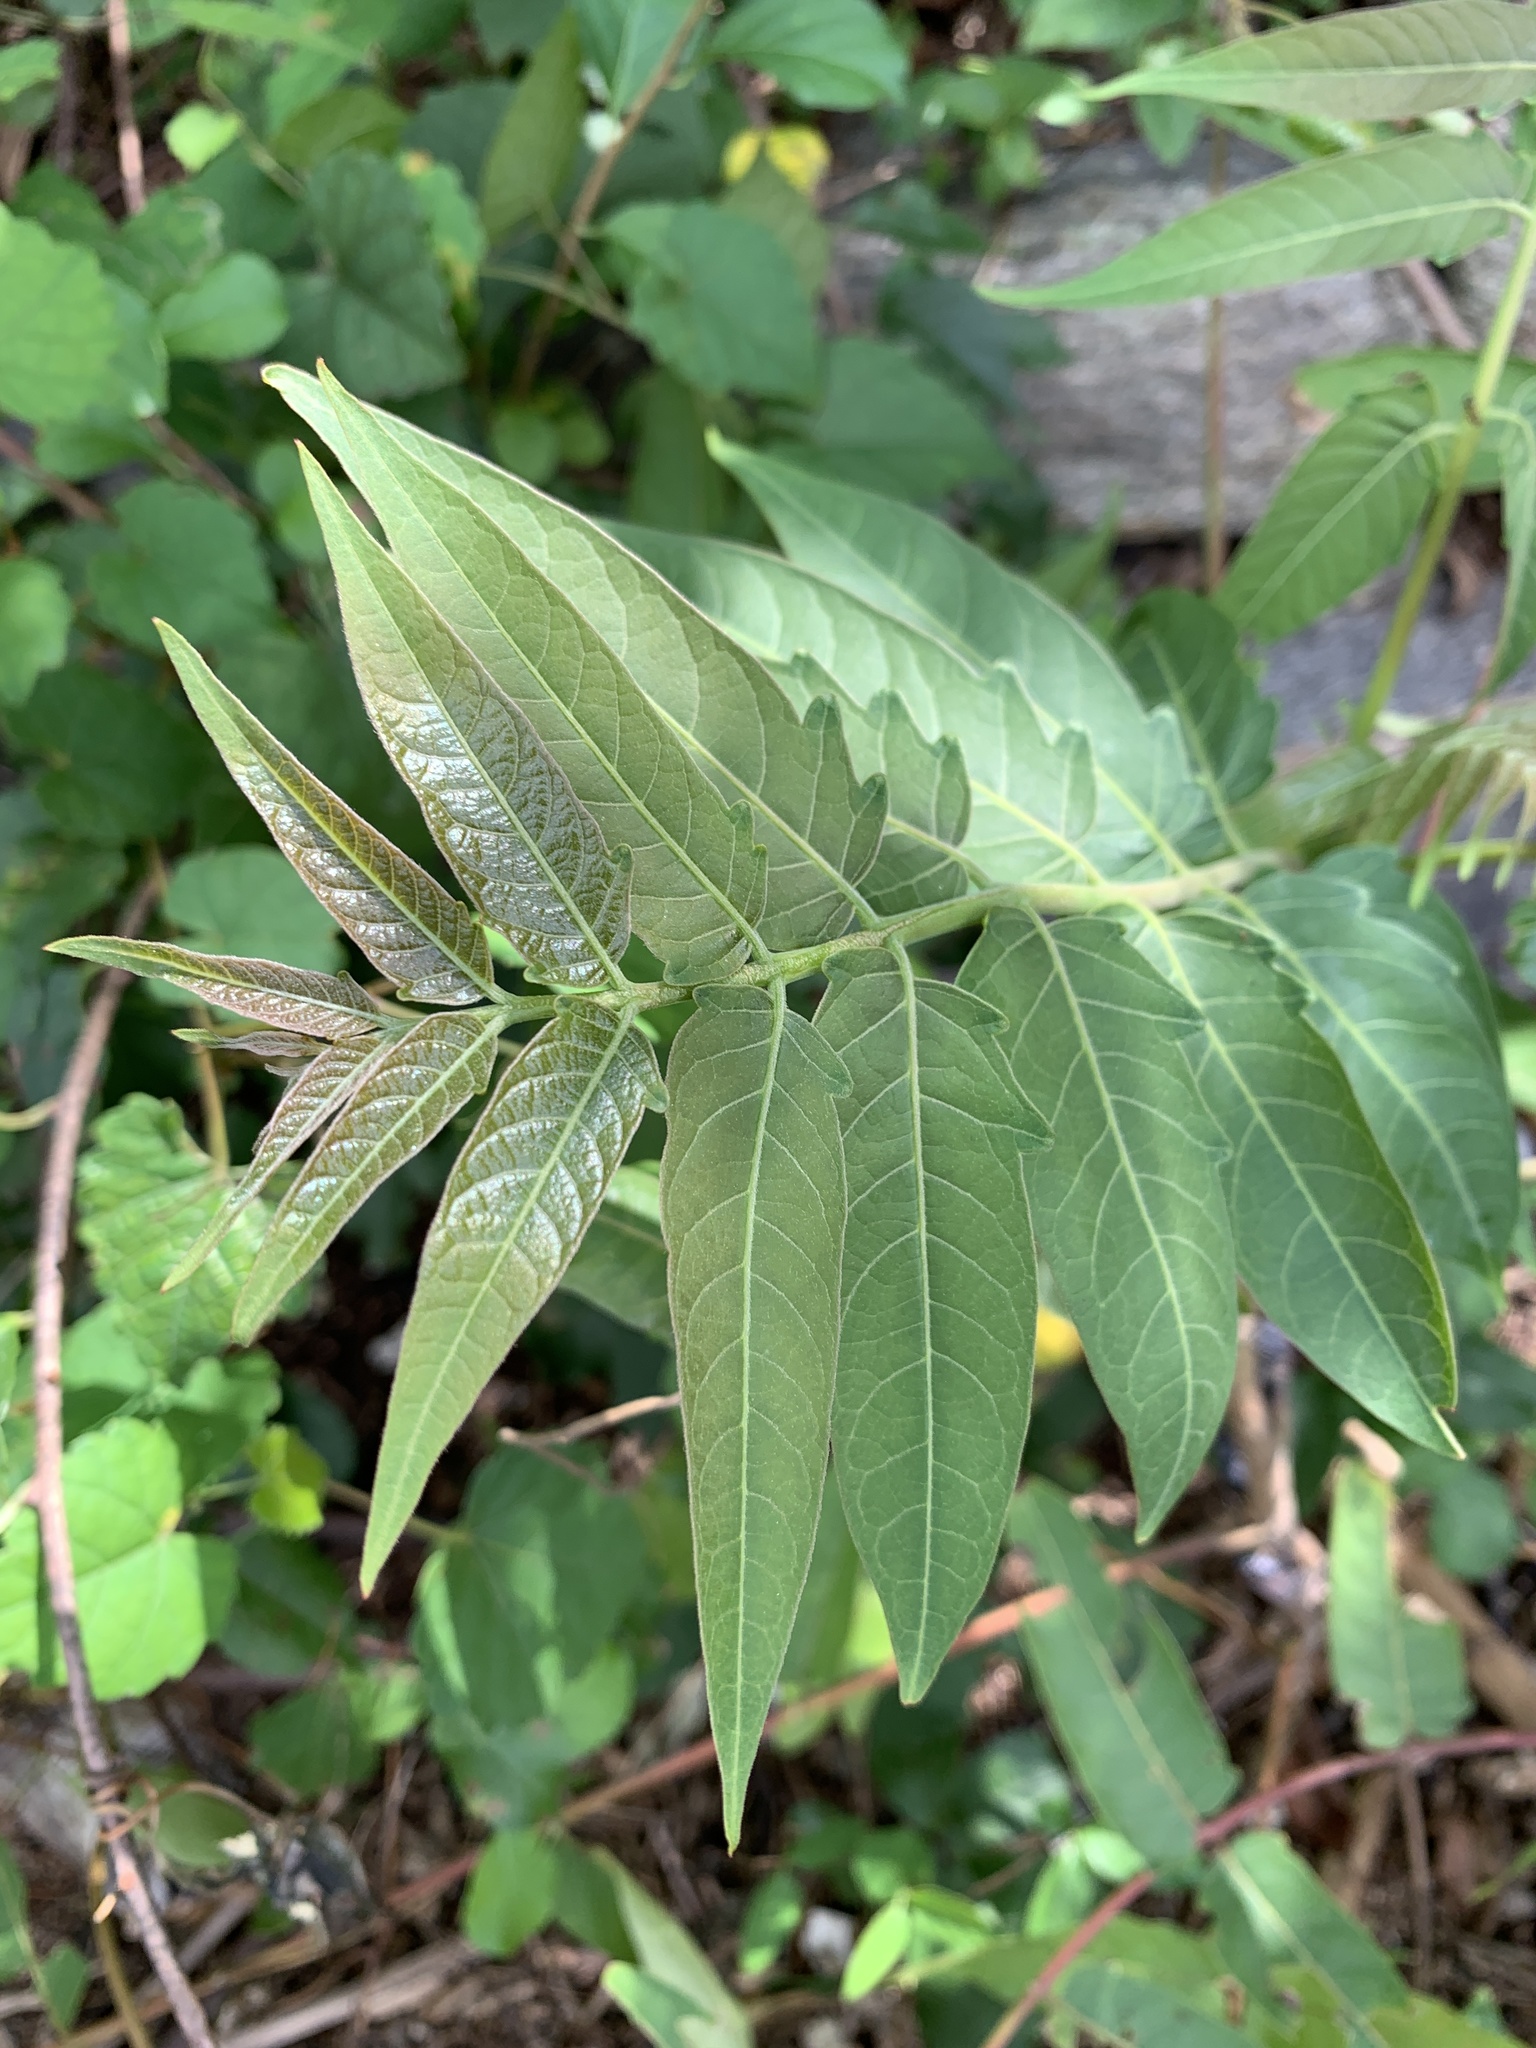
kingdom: Animalia
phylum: Arthropoda
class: Insecta
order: Lepidoptera
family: Attevidae
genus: Atteva
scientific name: Atteva punctella
